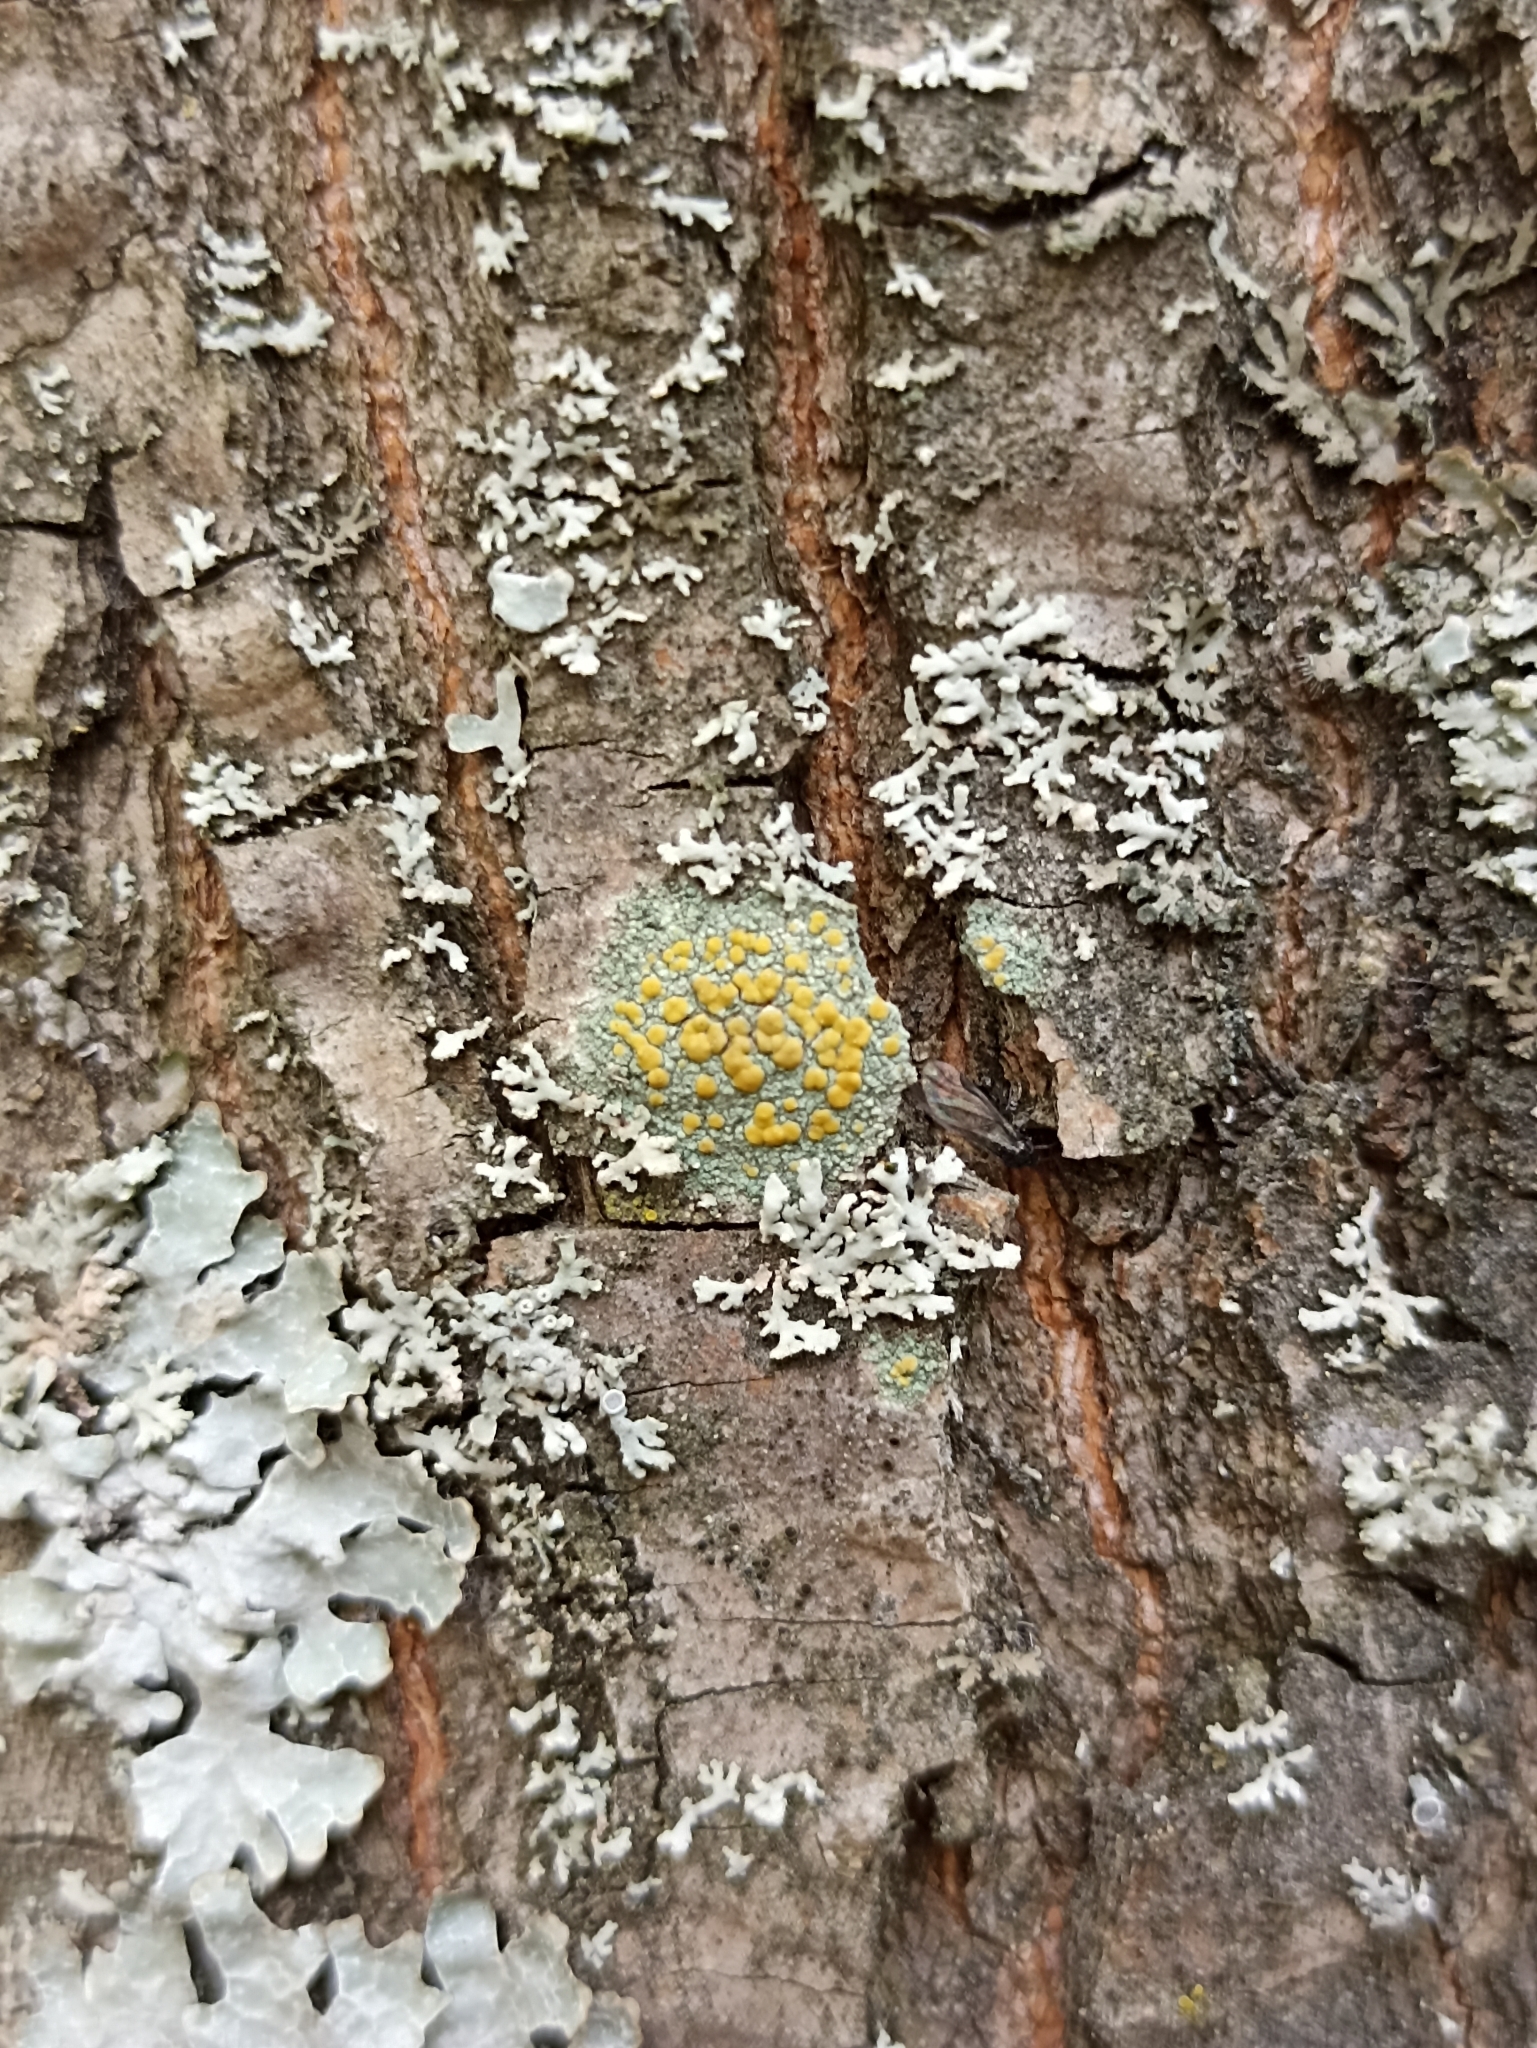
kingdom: Fungi
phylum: Ascomycota
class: Lecanoromycetes
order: Lecanorales
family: Lecanoraceae
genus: Lecanora
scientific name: Lecanora symmicta
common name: Fused rim lichen
